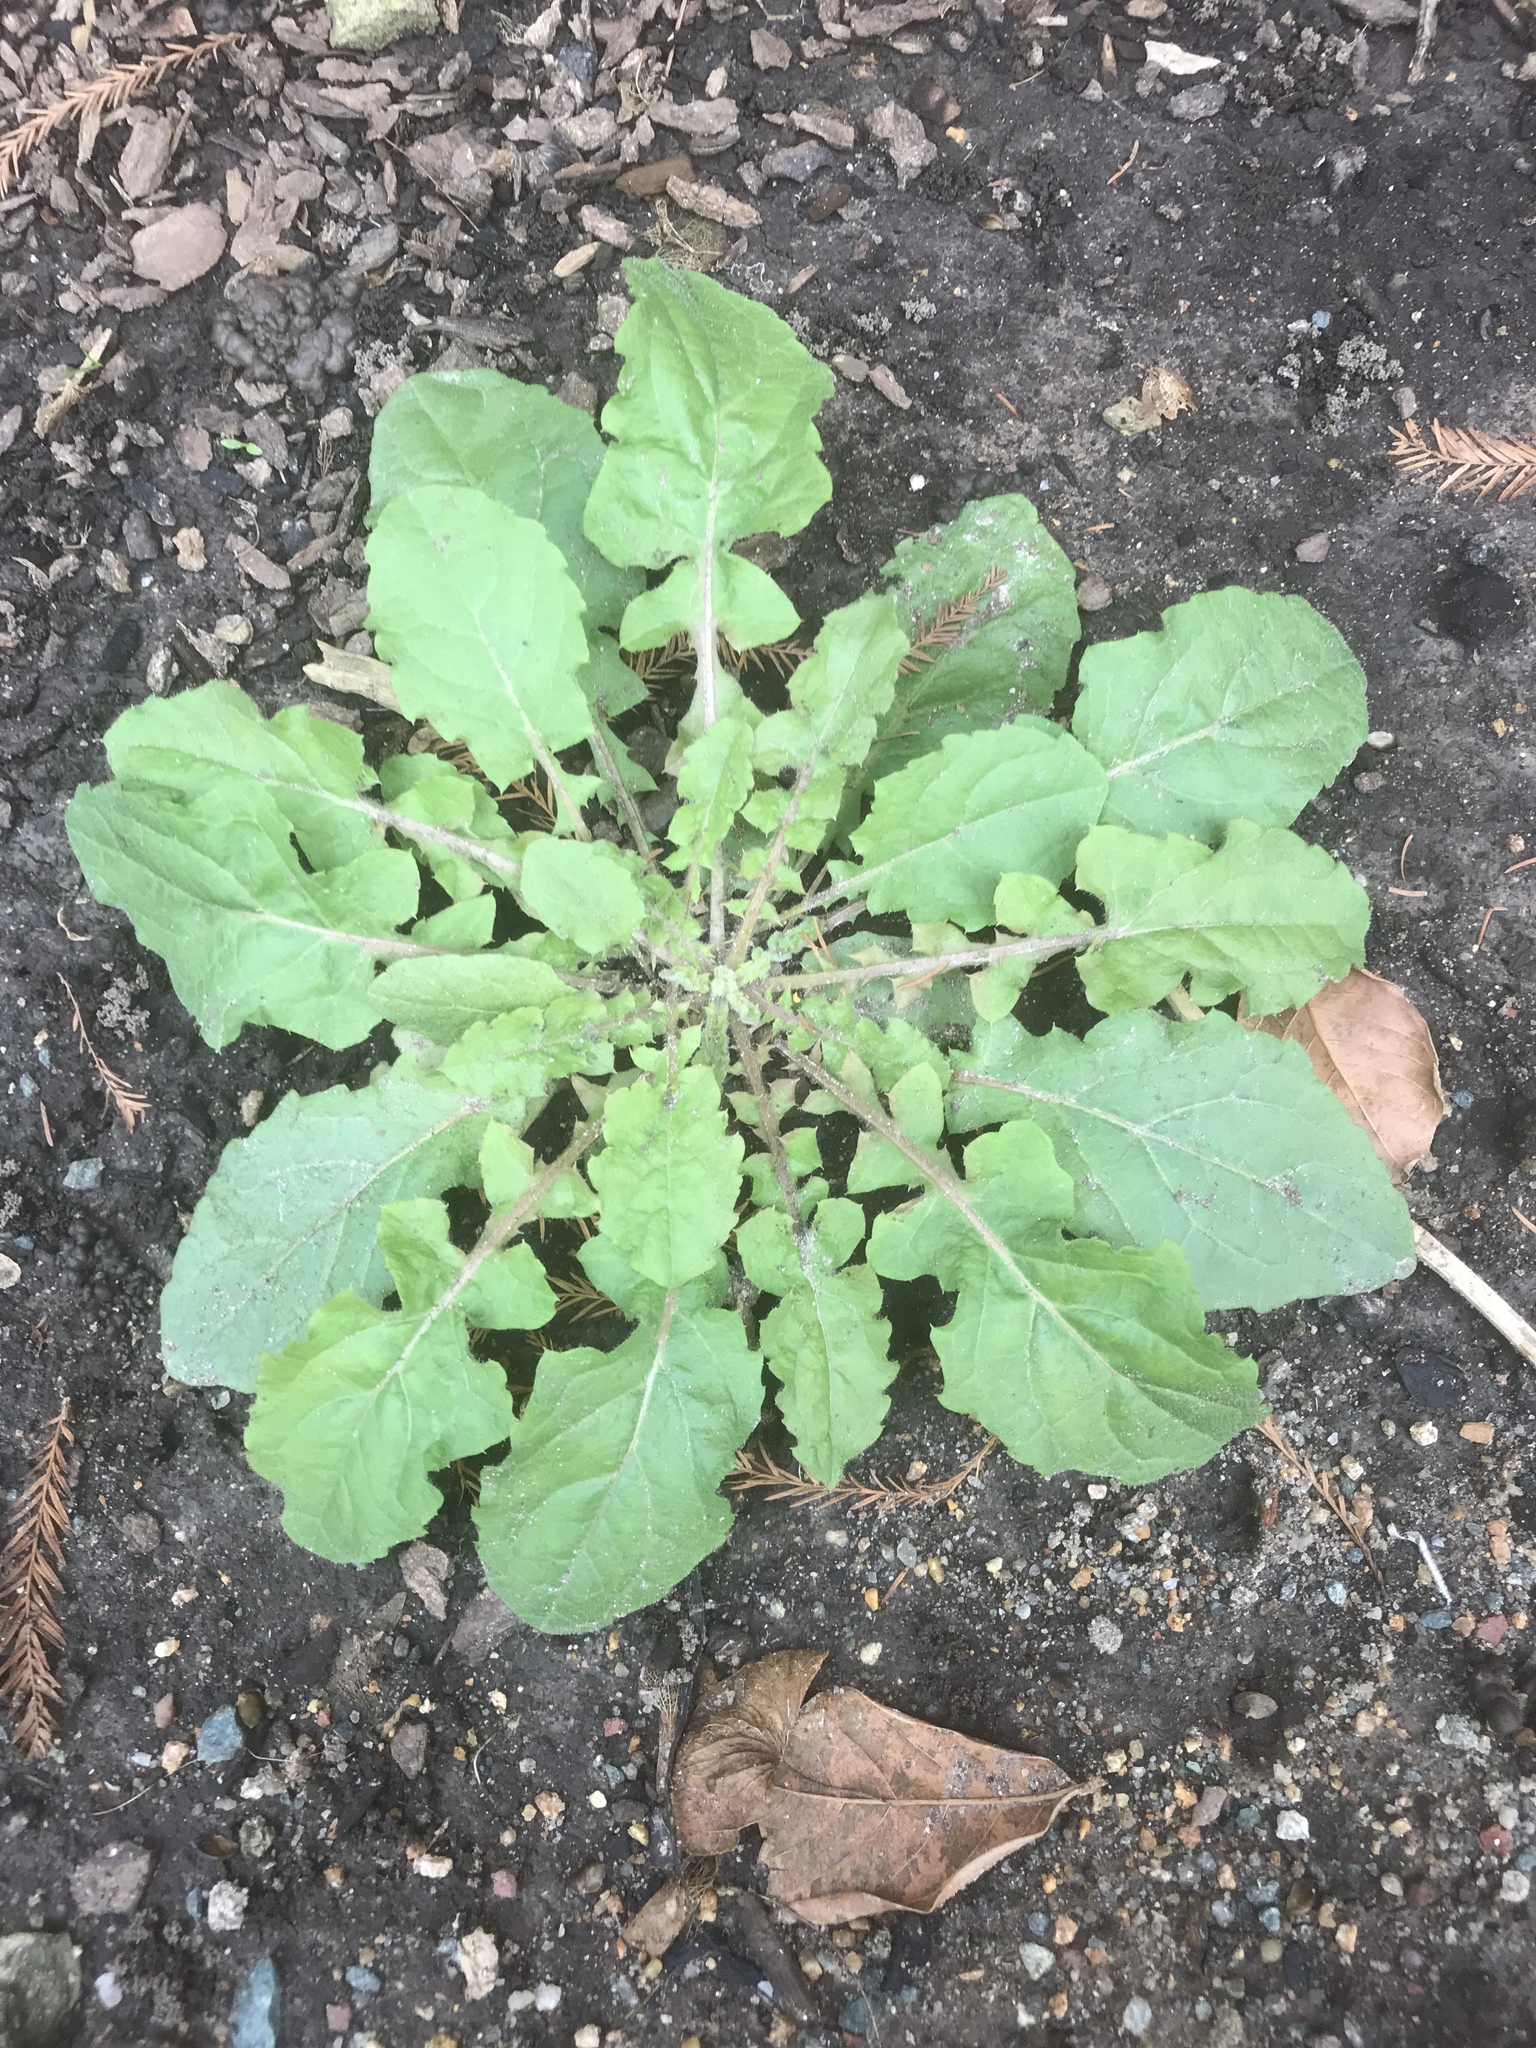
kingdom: Plantae
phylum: Tracheophyta
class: Magnoliopsida
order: Asterales
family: Asteraceae
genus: Youngia
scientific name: Youngia japonica
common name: Oriental false hawksbeard
